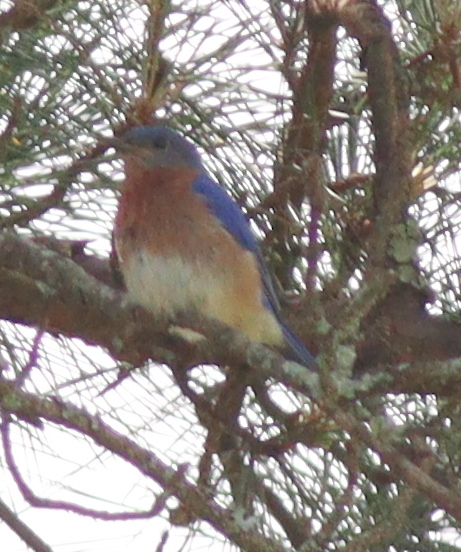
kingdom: Animalia
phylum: Chordata
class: Aves
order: Passeriformes
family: Turdidae
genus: Sialia
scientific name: Sialia sialis
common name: Eastern bluebird
